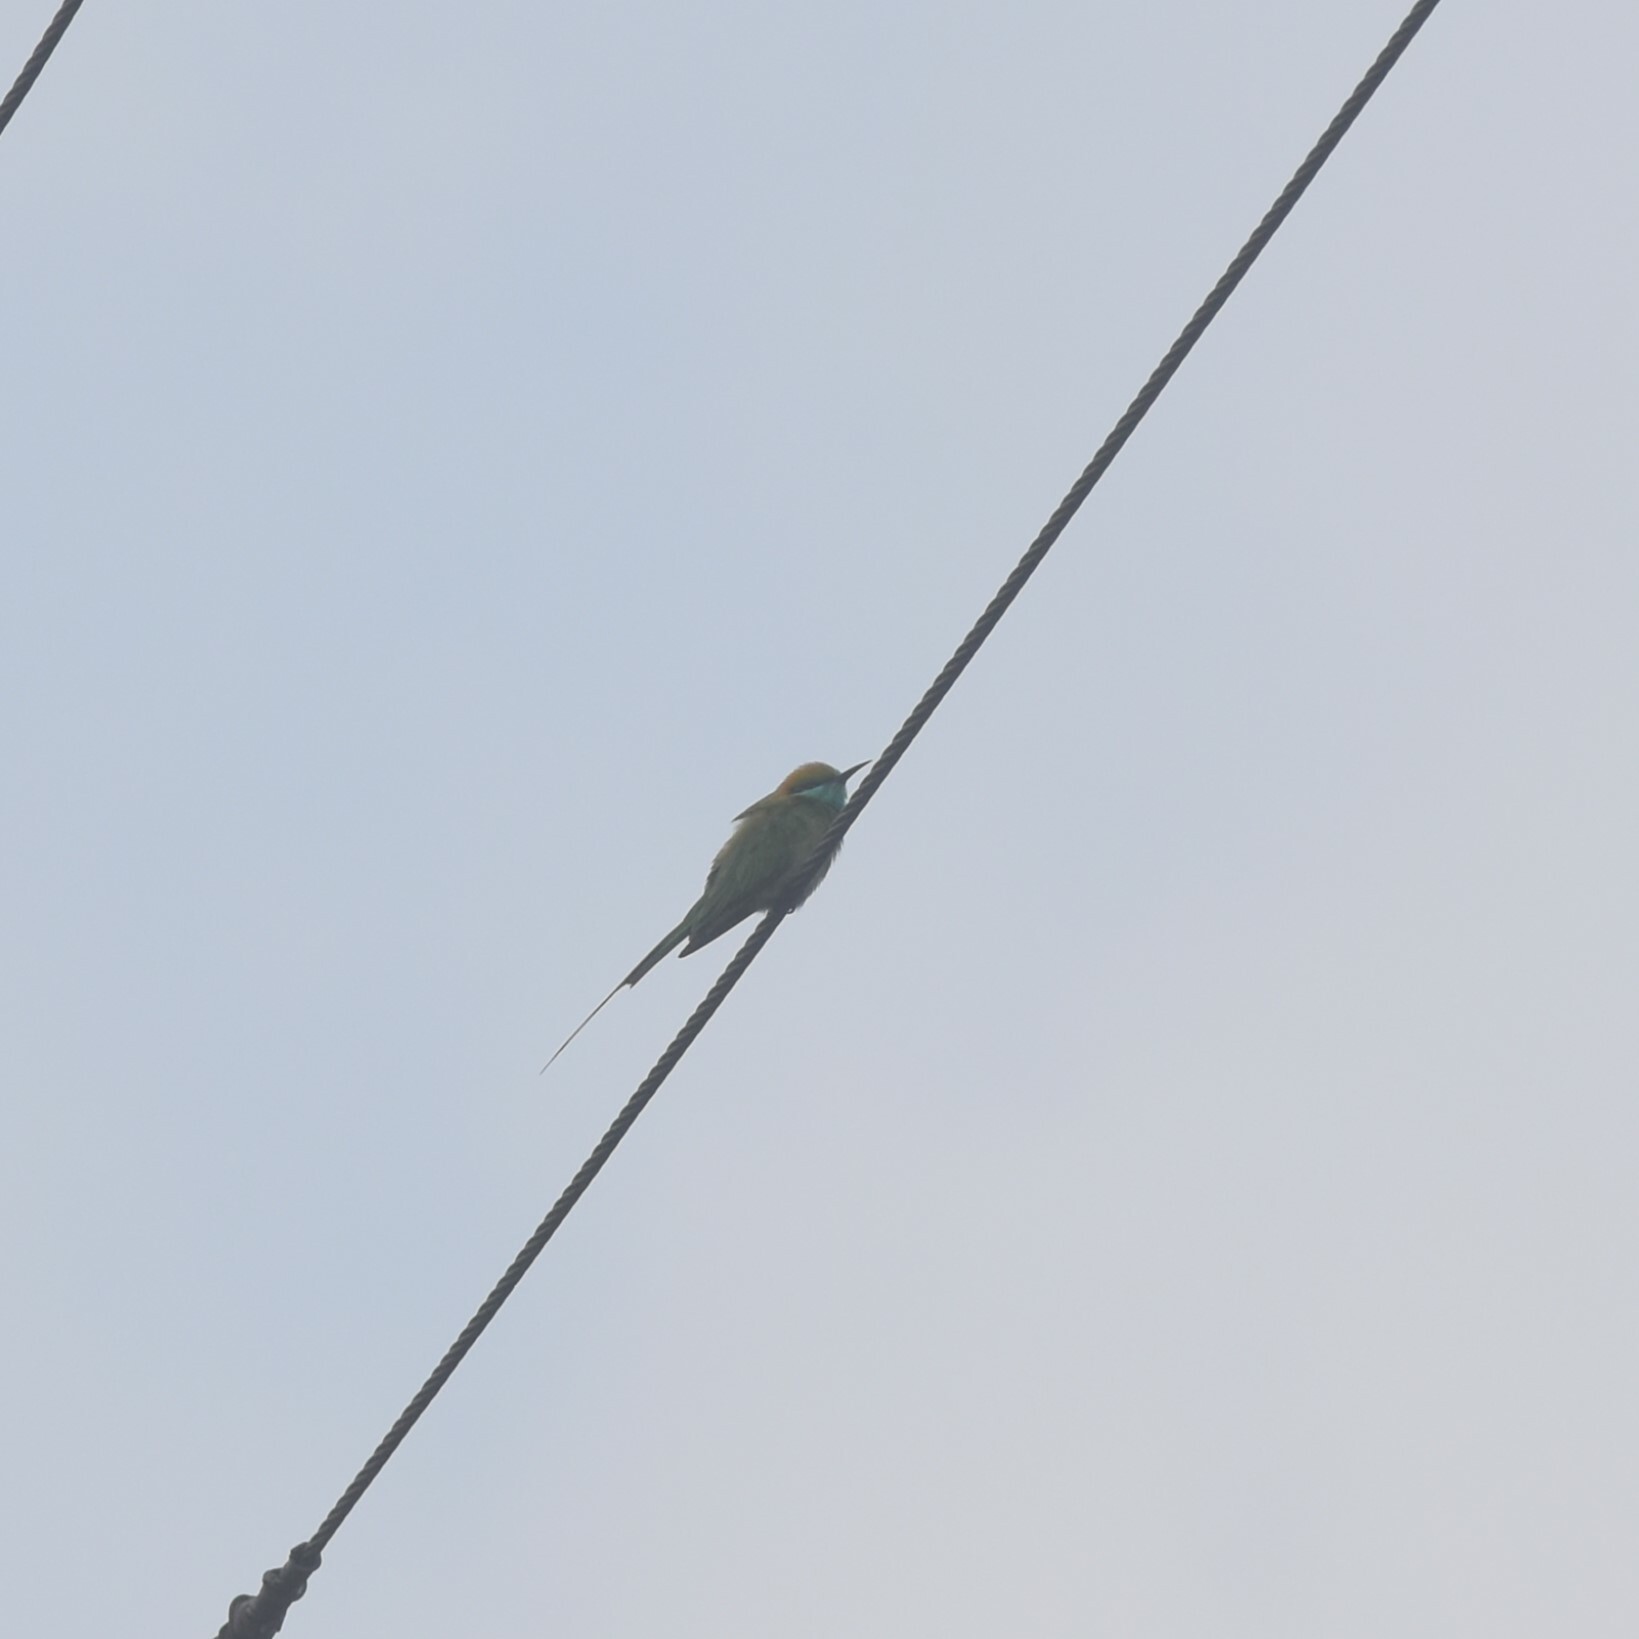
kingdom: Animalia
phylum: Chordata
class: Aves
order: Coraciiformes
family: Meropidae
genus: Merops
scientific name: Merops orientalis
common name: Green bee-eater
